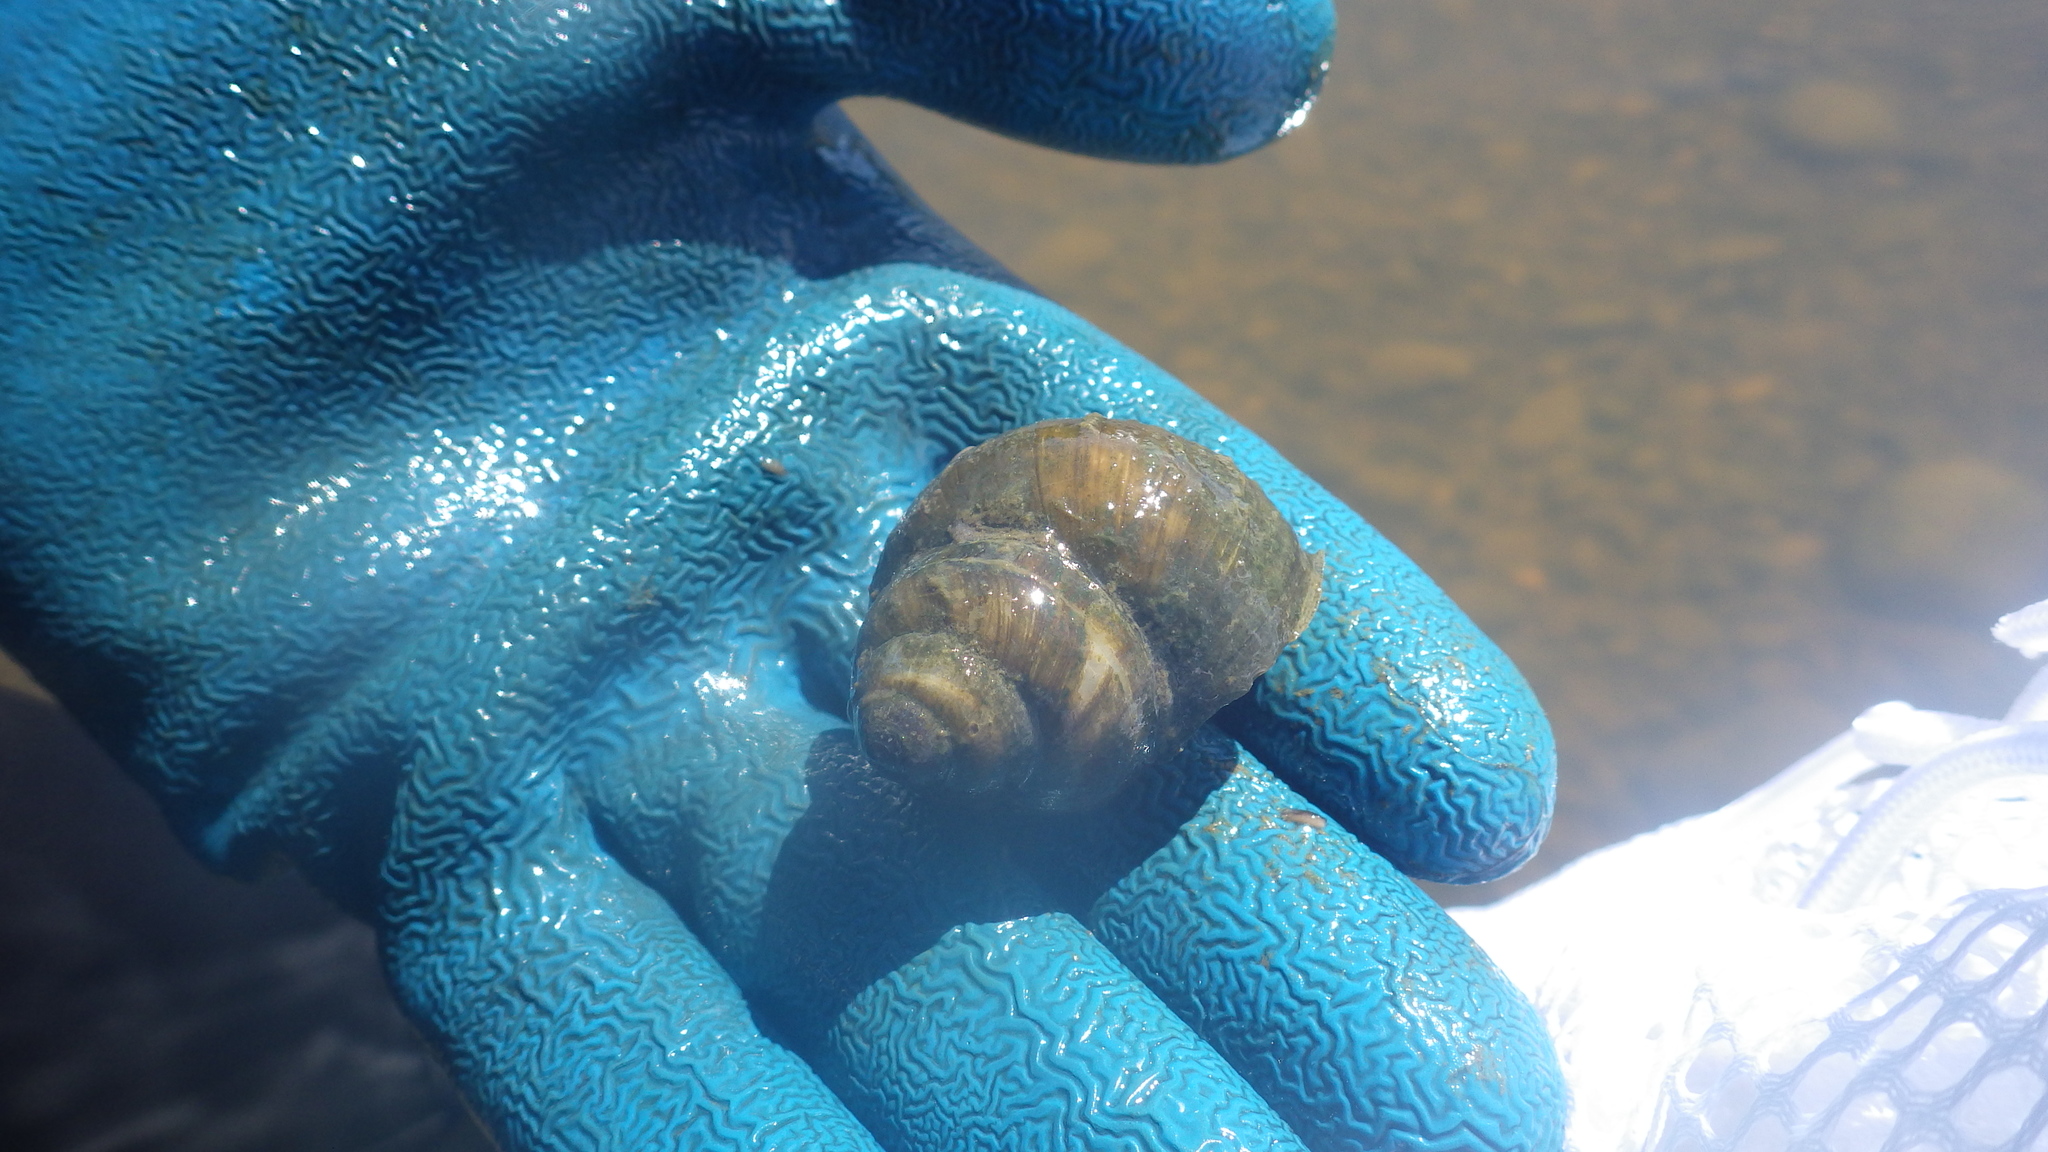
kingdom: Animalia
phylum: Mollusca
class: Gastropoda
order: Architaenioglossa
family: Viviparidae
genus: Cipangopaludina
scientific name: Cipangopaludina chinensis
